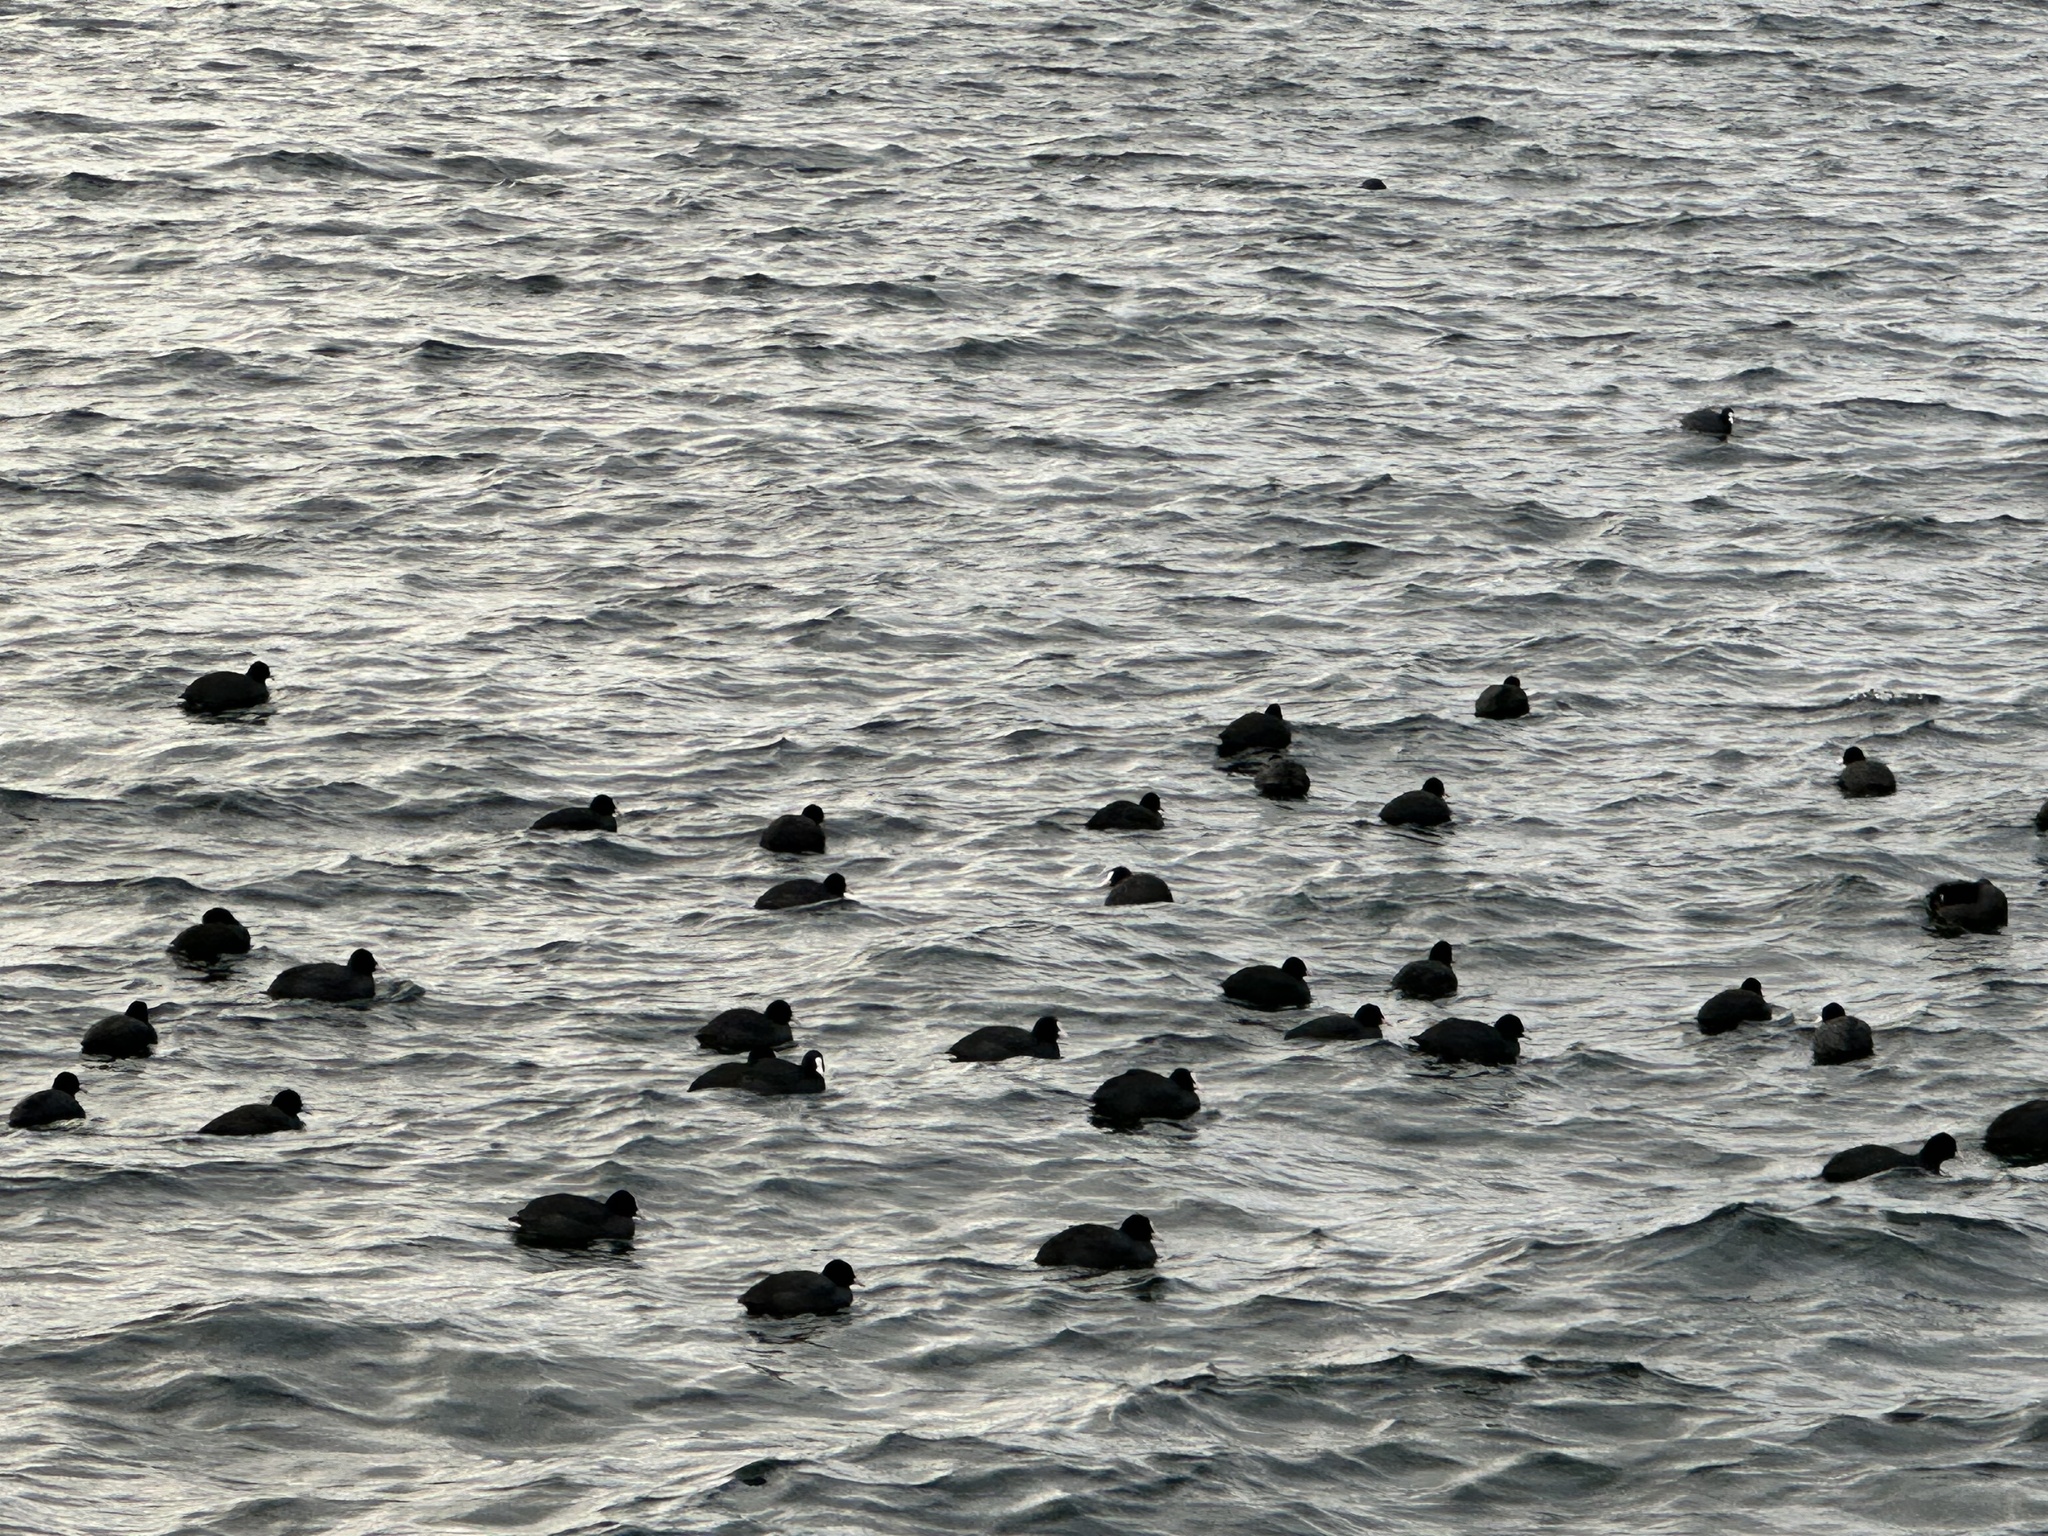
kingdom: Animalia
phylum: Chordata
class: Aves
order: Gruiformes
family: Rallidae
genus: Fulica
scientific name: Fulica atra
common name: Eurasian coot
